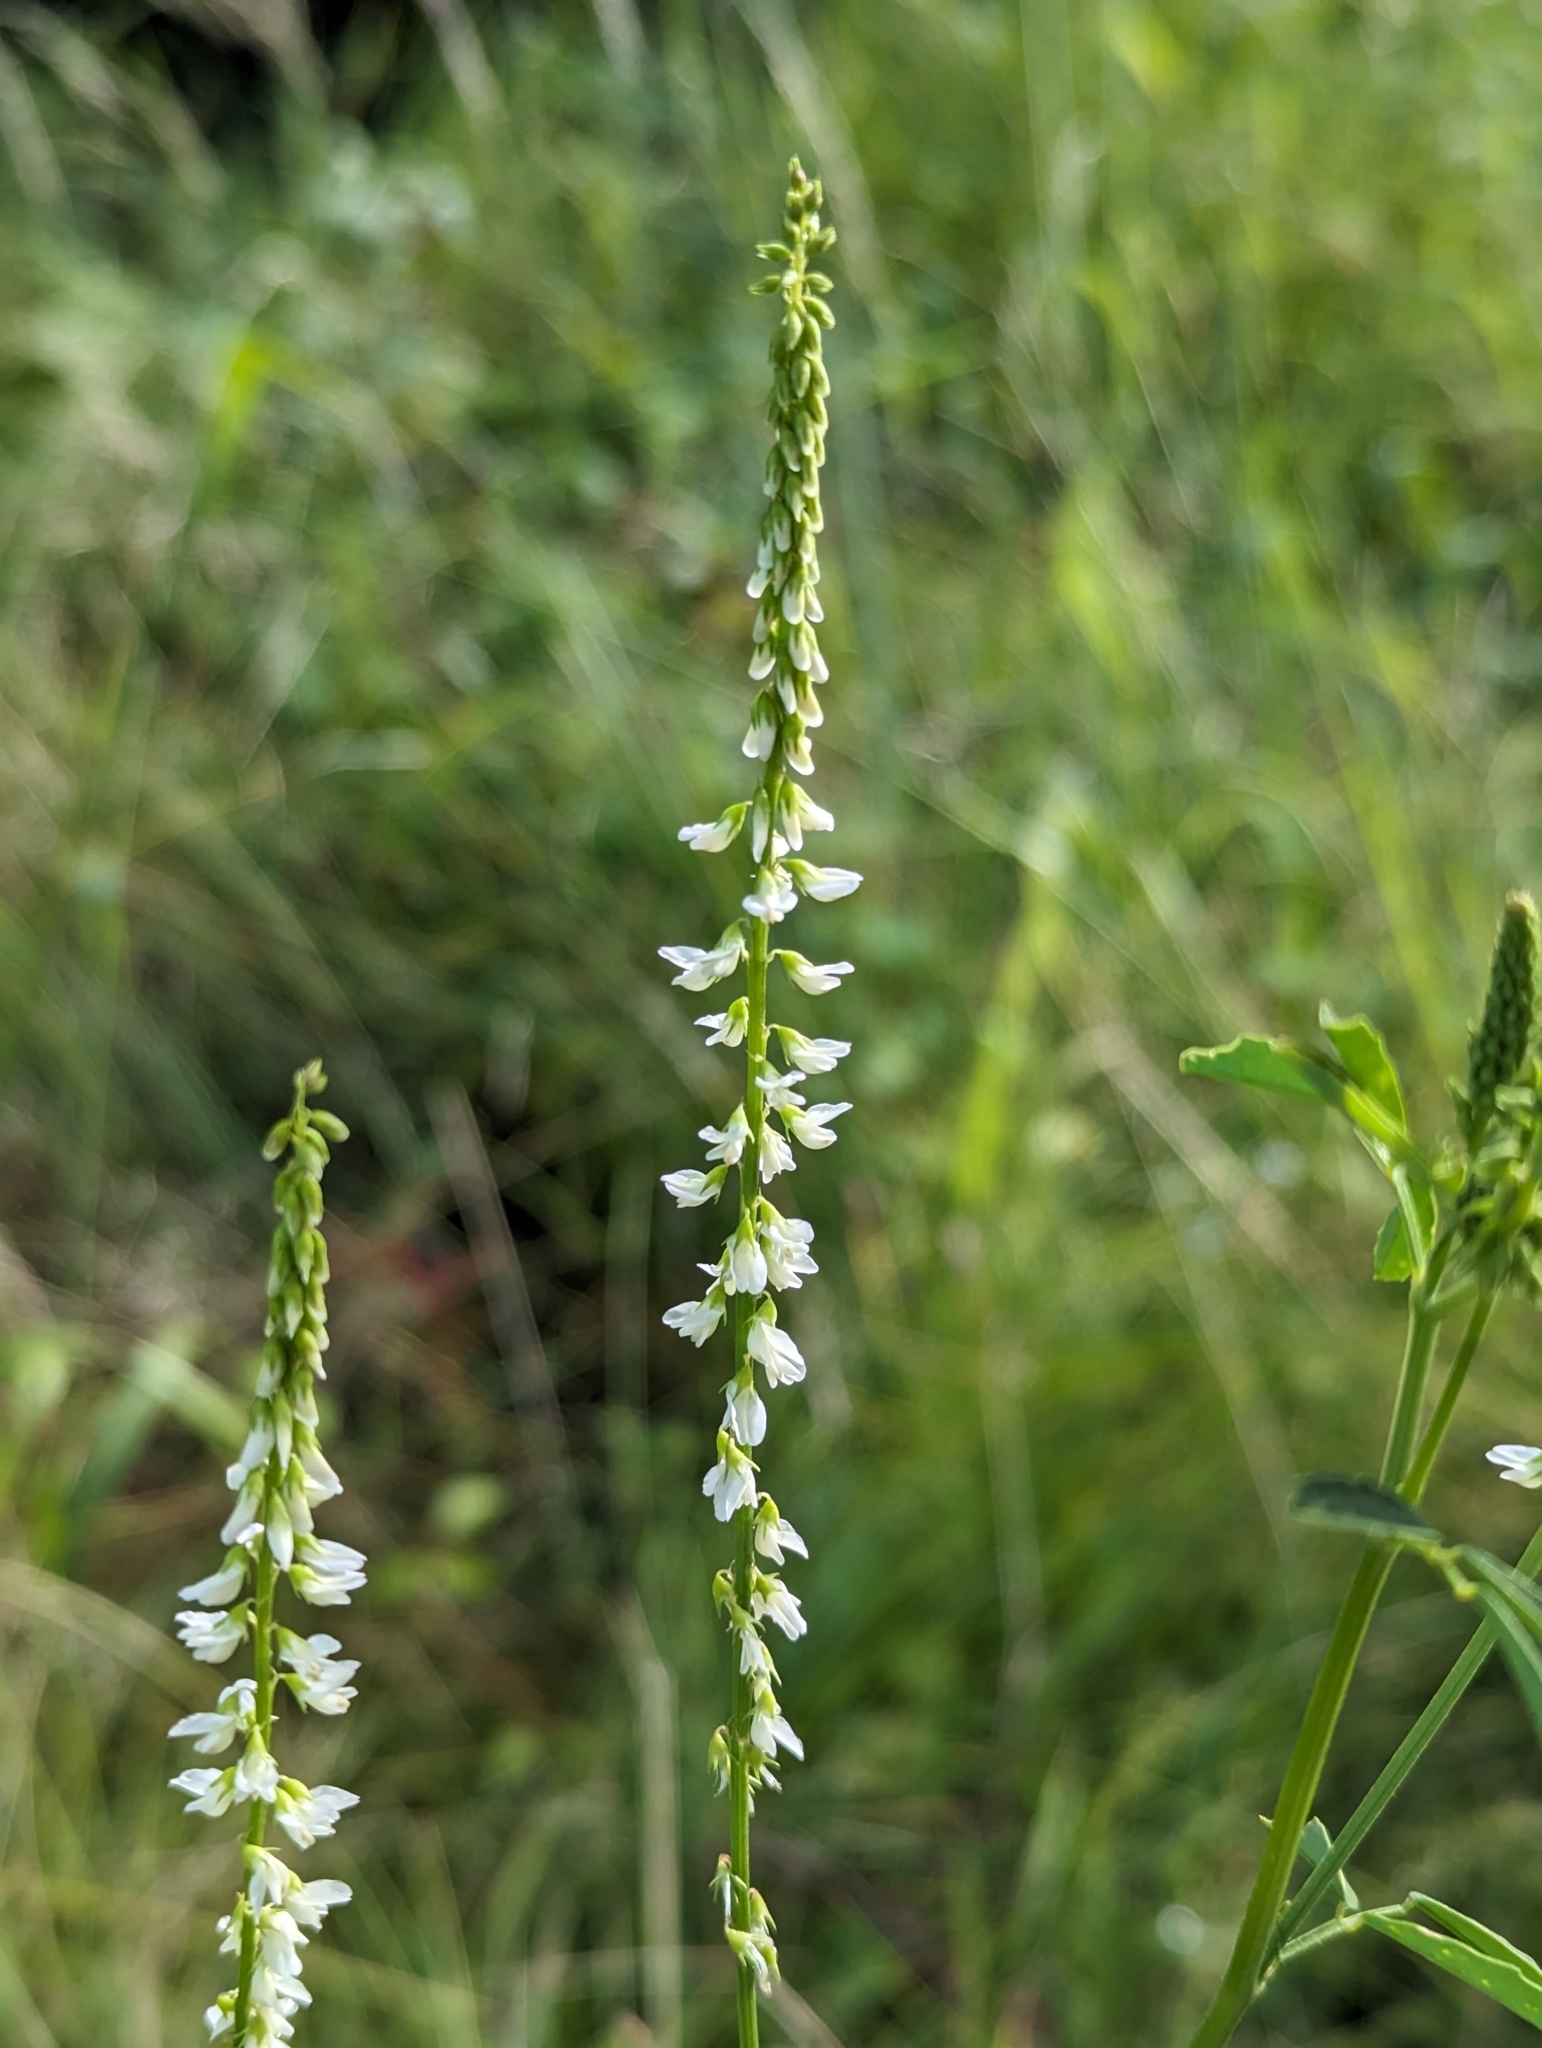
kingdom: Plantae
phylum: Tracheophyta
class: Magnoliopsida
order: Fabales
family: Fabaceae
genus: Melilotus
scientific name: Melilotus albus
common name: White melilot
